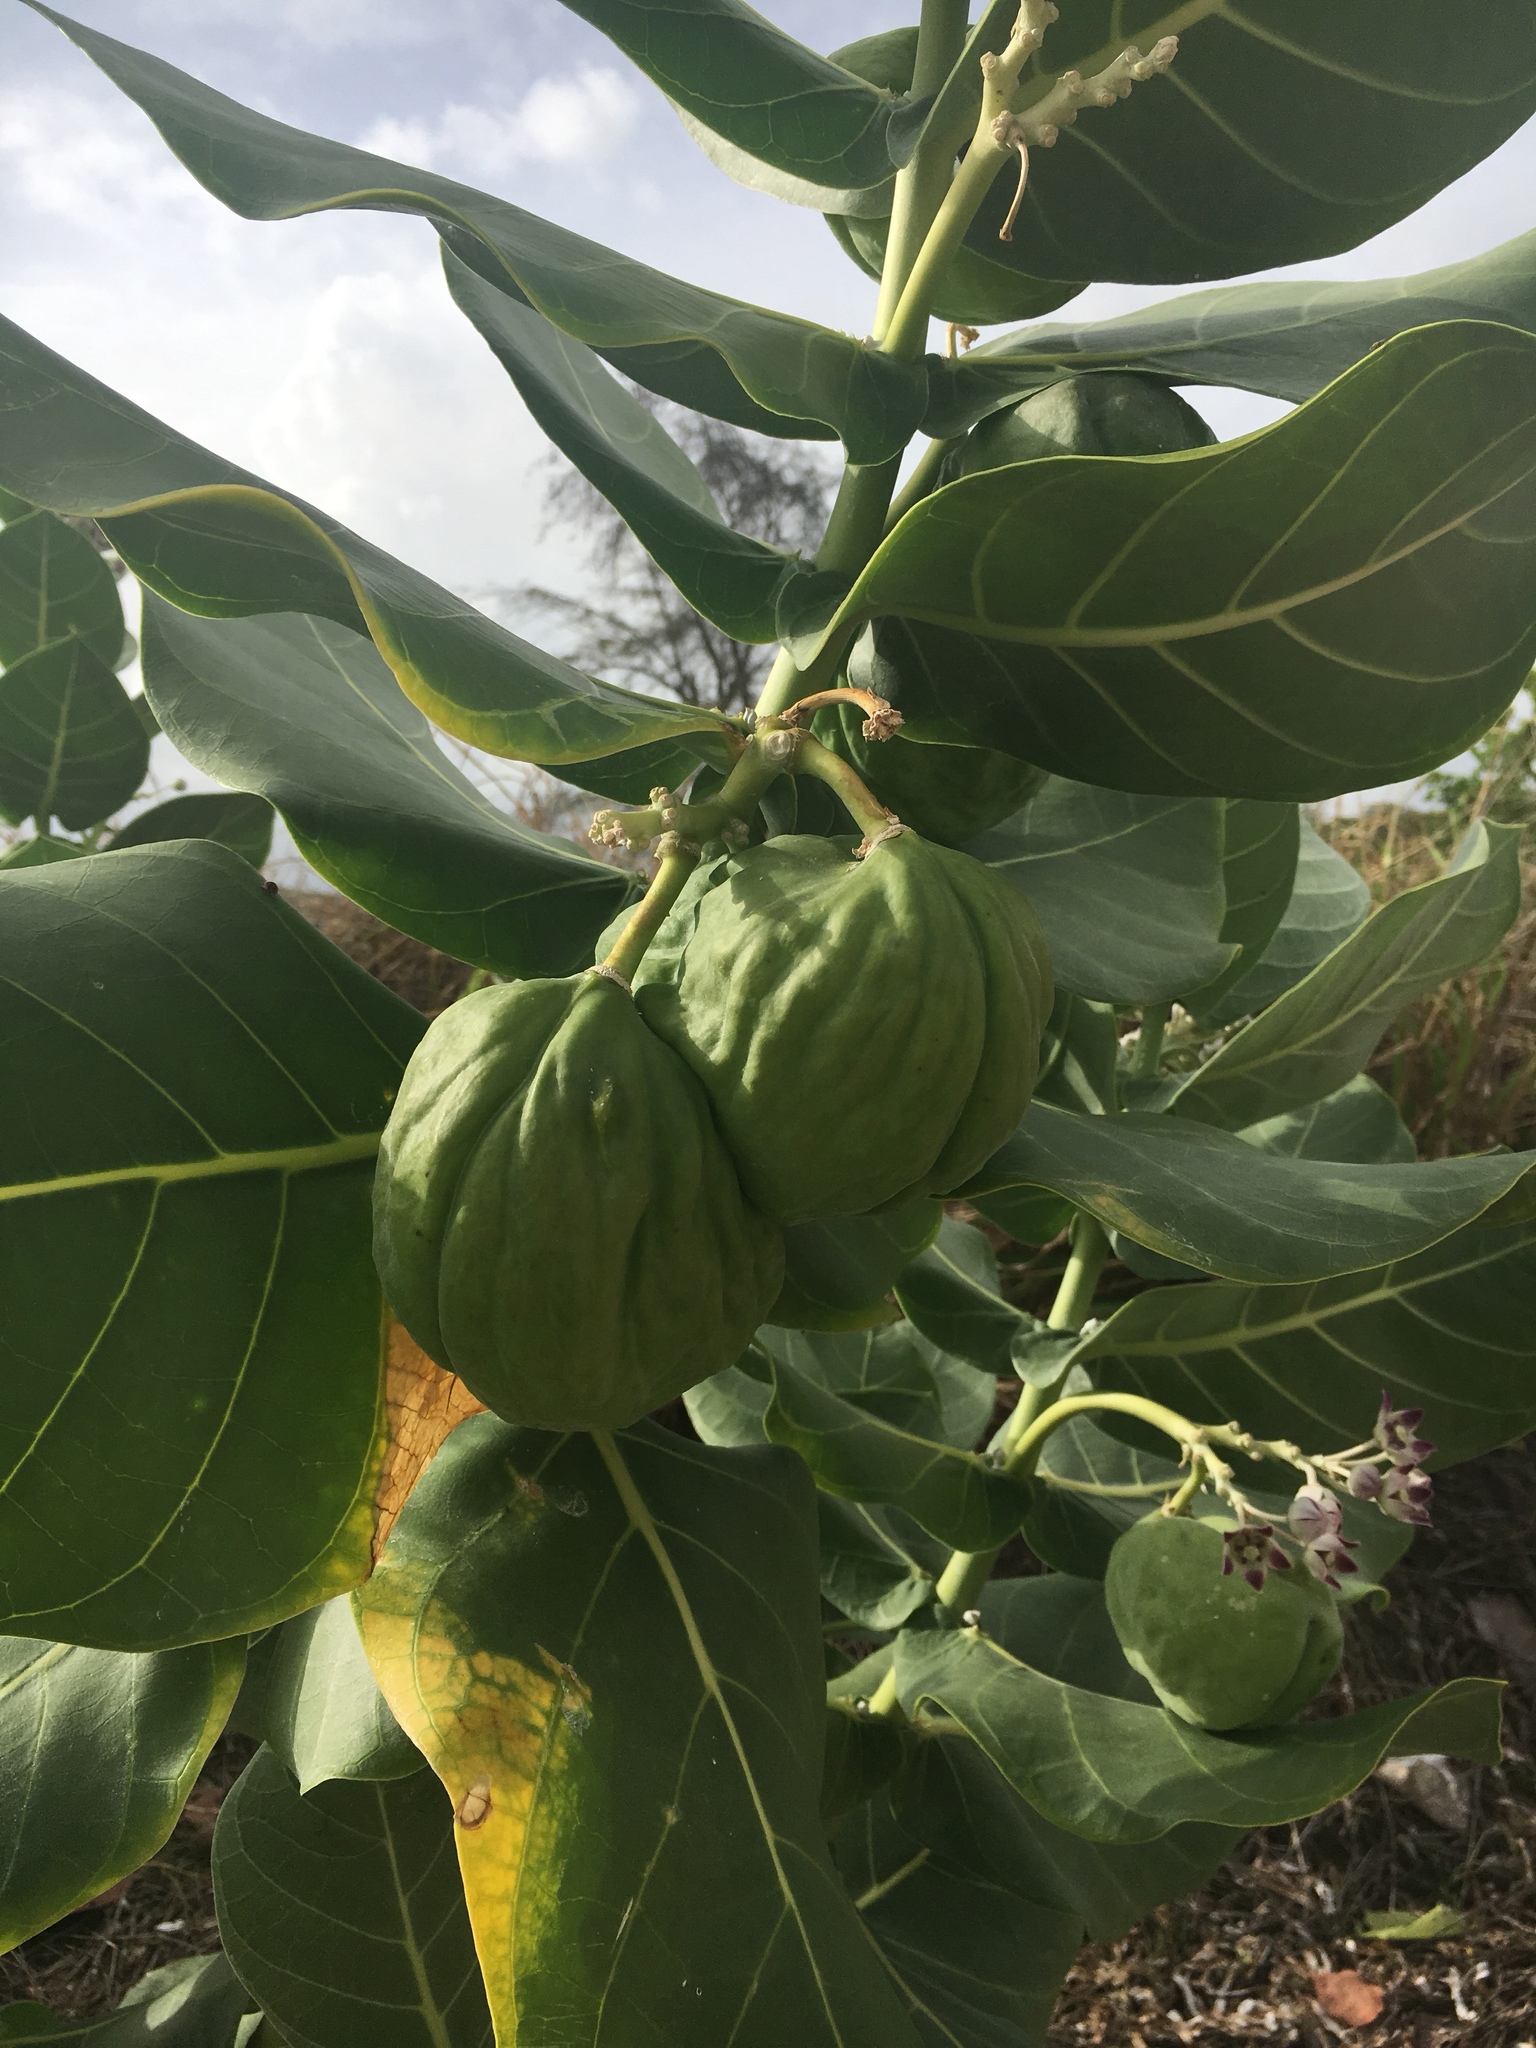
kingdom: Plantae
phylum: Tracheophyta
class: Magnoliopsida
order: Gentianales
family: Apocynaceae
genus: Calotropis
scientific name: Calotropis procera
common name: Roostertree
